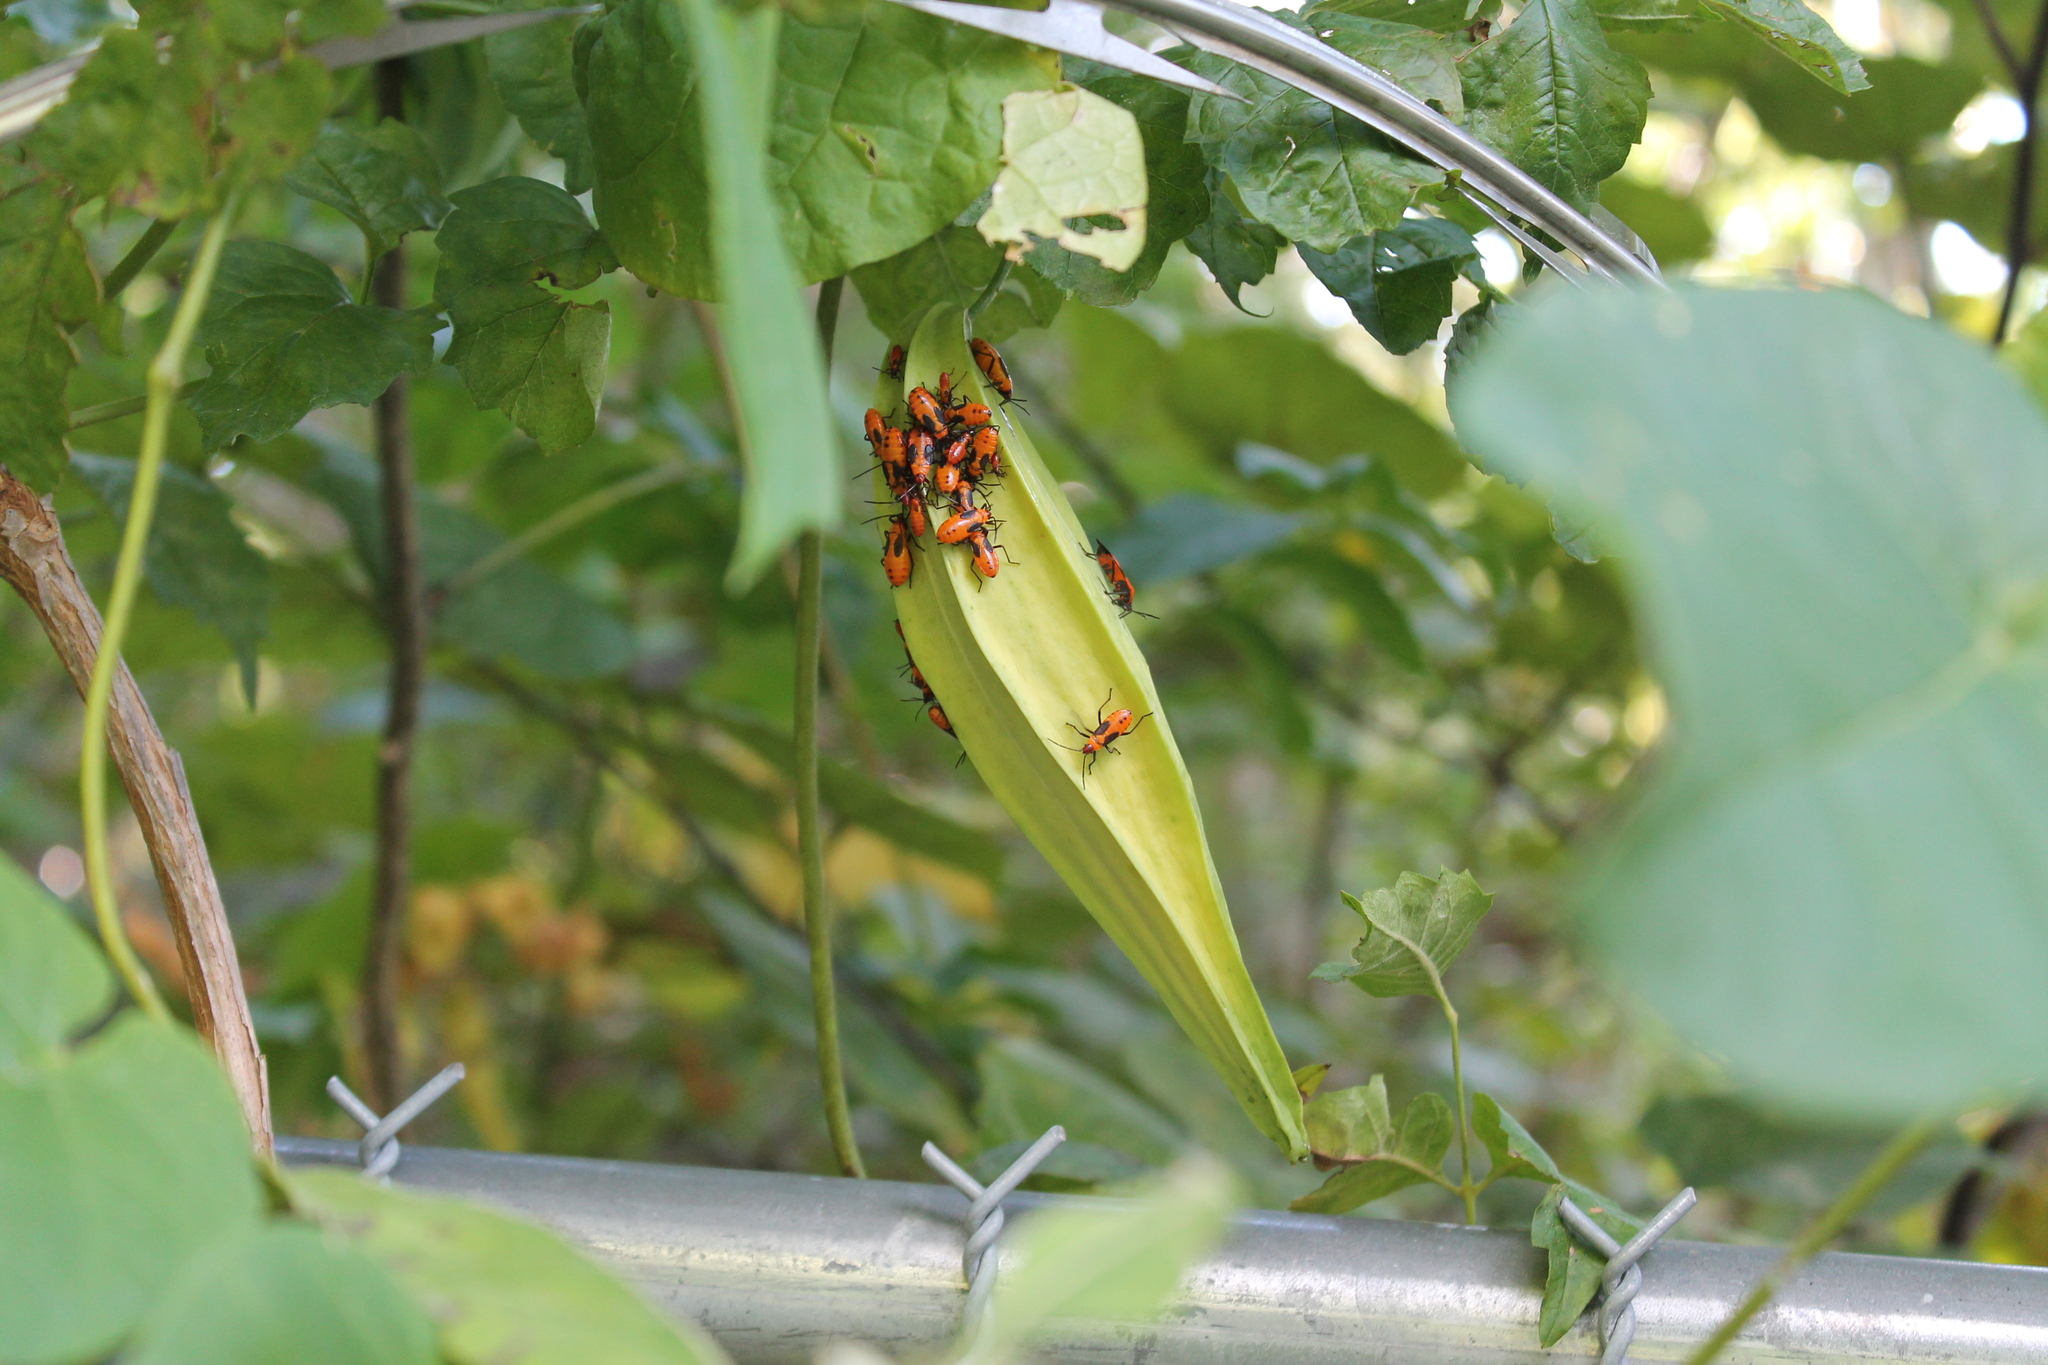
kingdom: Plantae
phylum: Tracheophyta
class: Magnoliopsida
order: Gentianales
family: Apocynaceae
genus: Gonolobus
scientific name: Gonolobus suberosus
